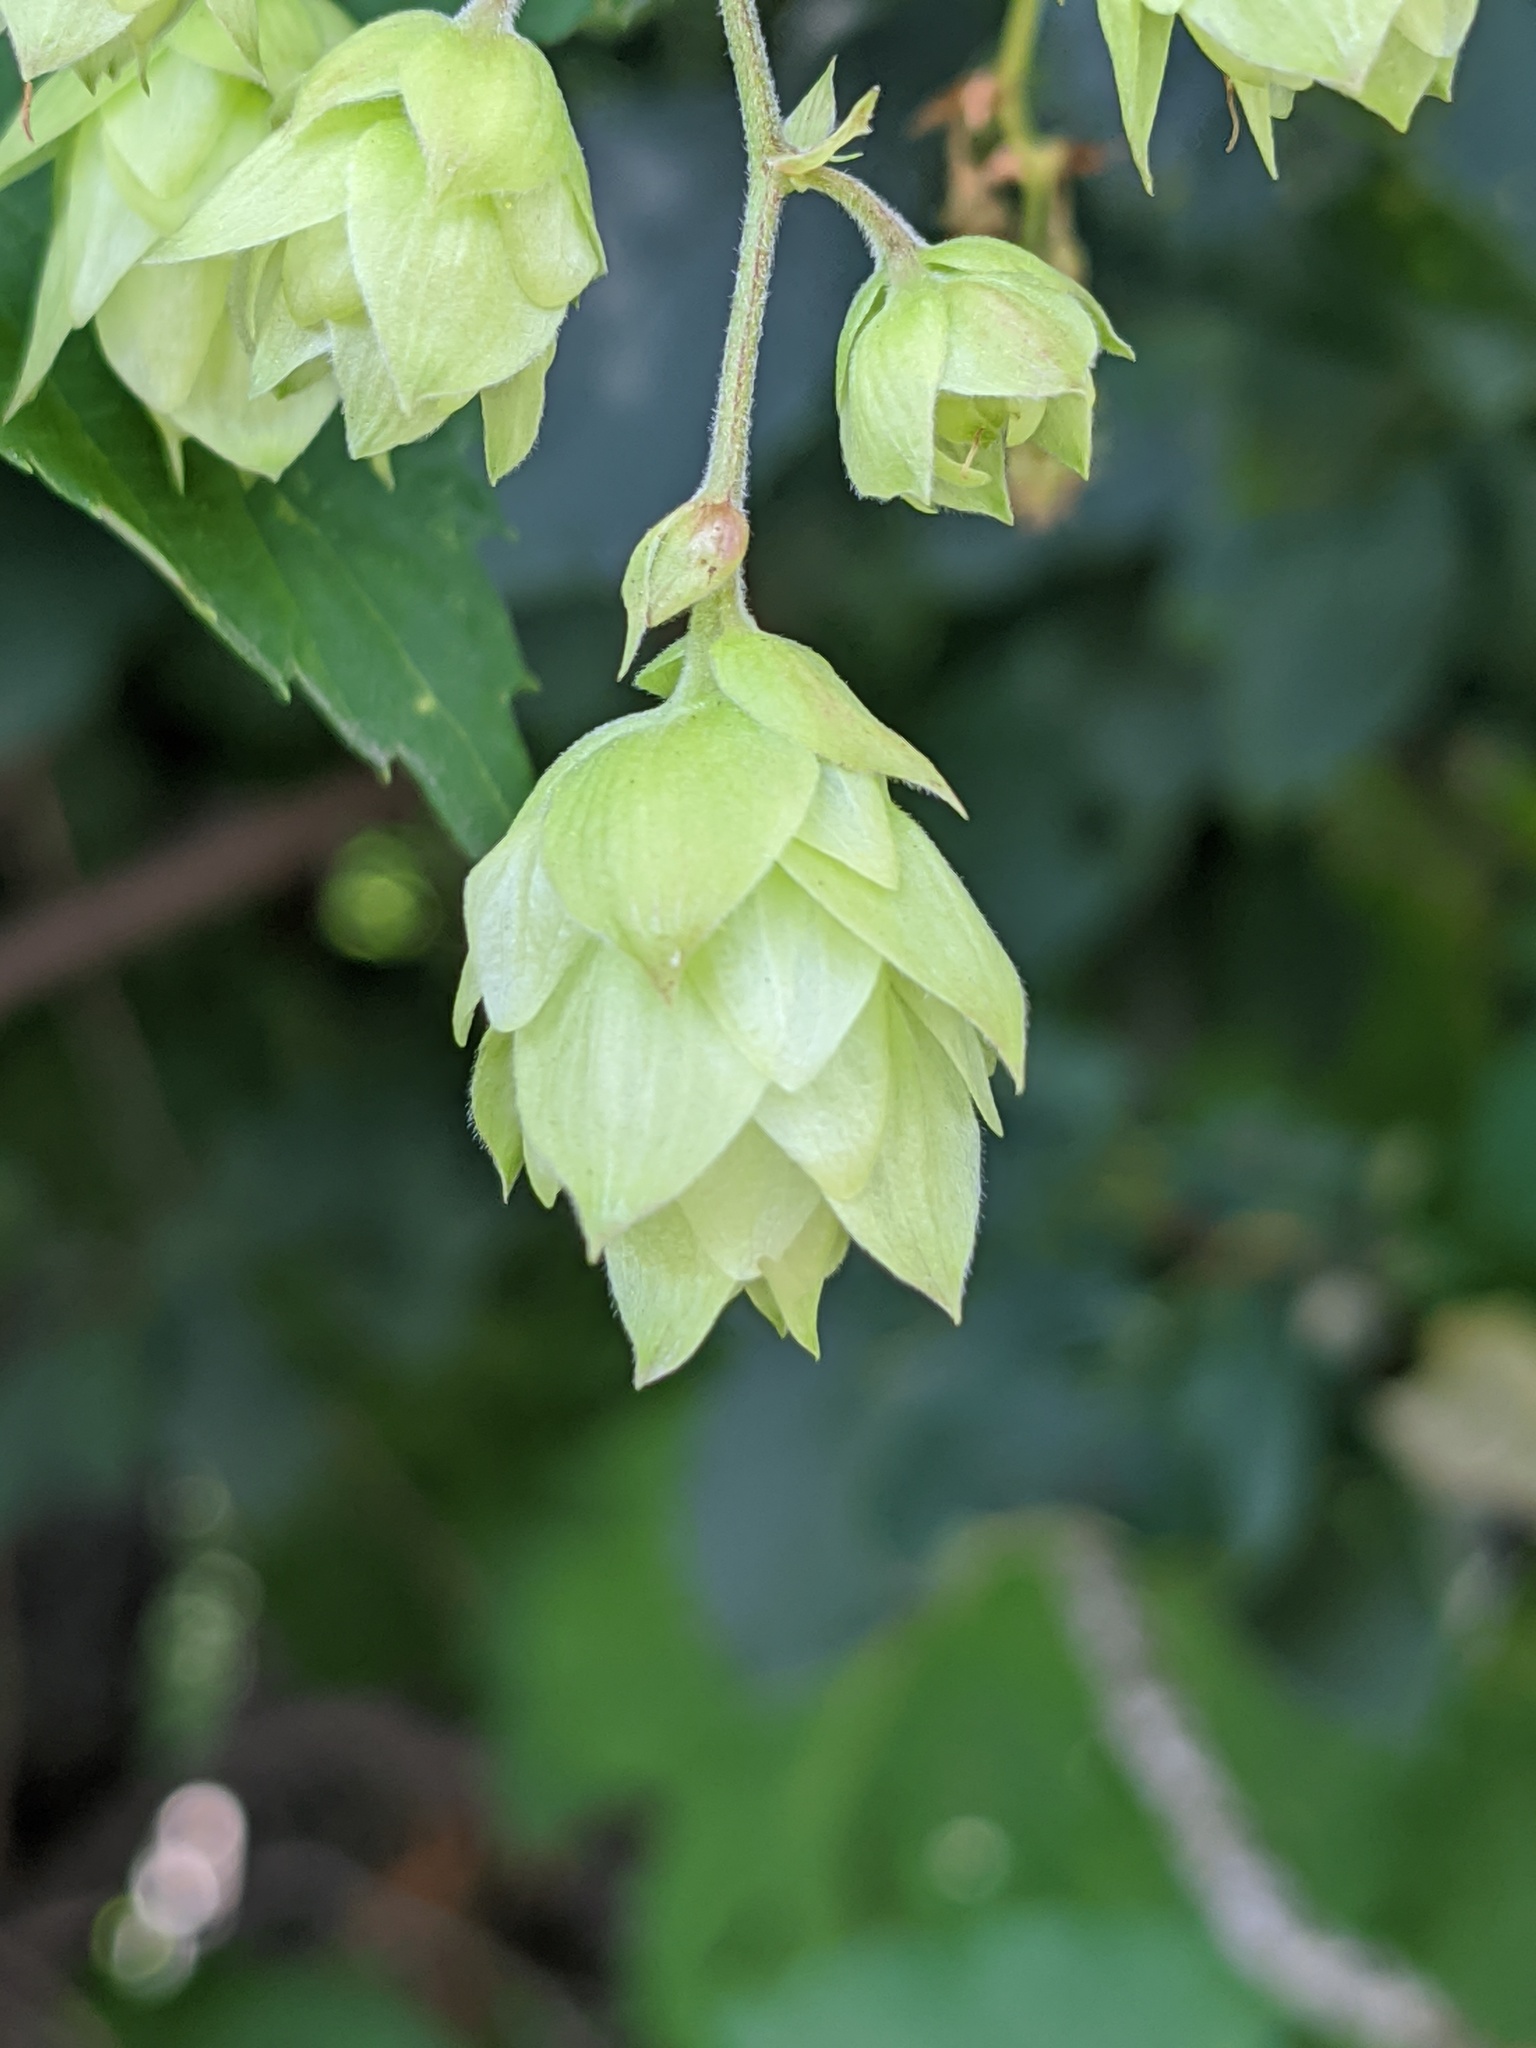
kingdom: Plantae
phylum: Tracheophyta
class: Magnoliopsida
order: Rosales
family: Cannabaceae
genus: Humulus
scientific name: Humulus lupulus
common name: Hop
